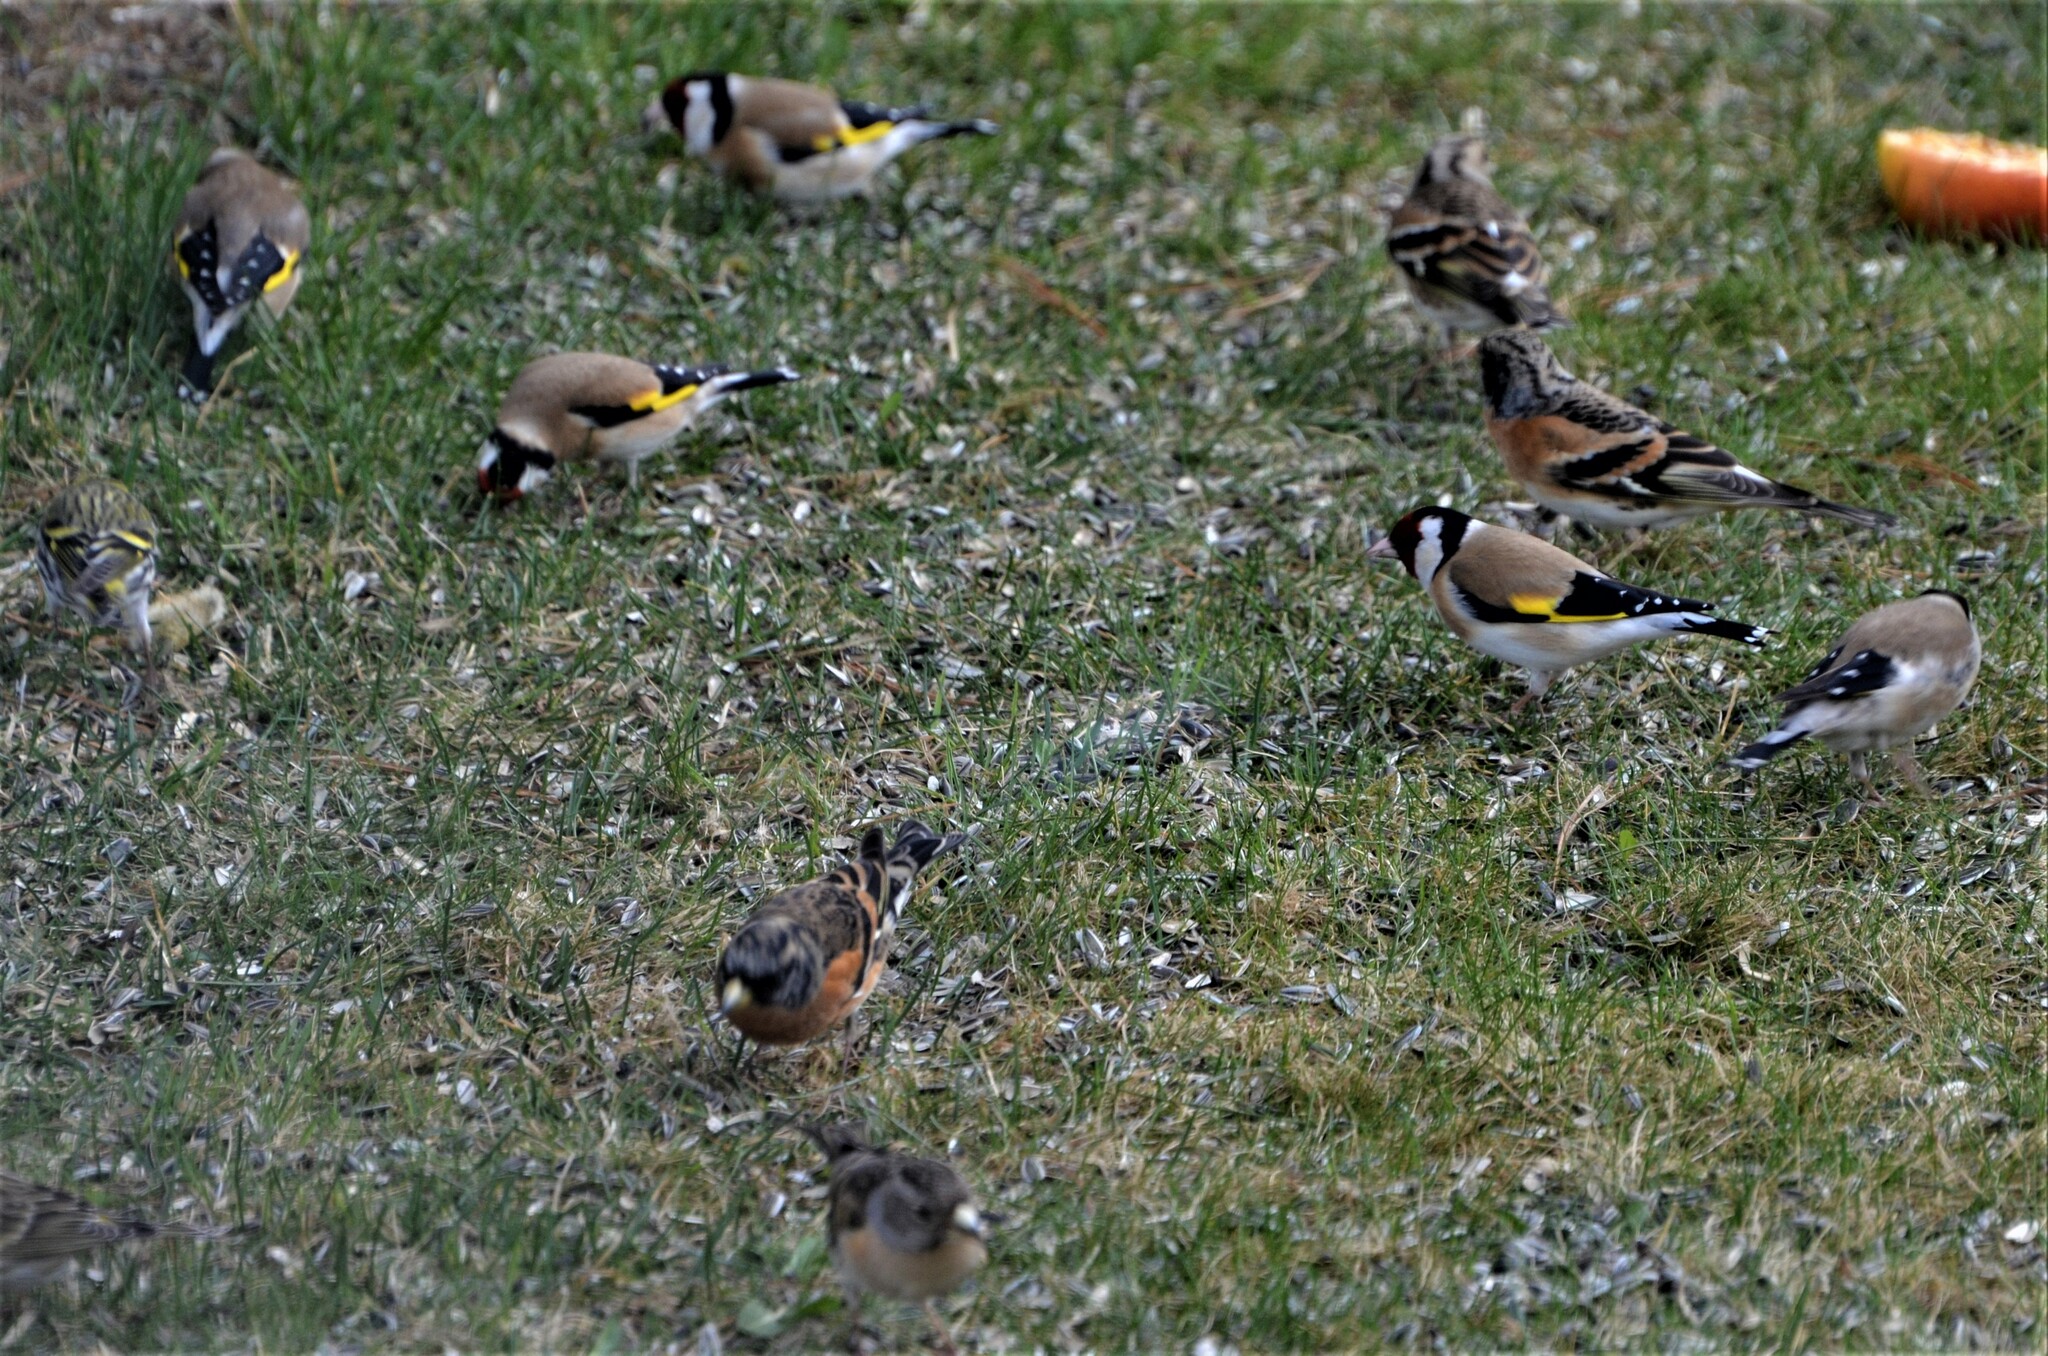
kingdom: Animalia
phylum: Chordata
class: Aves
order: Passeriformes
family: Fringillidae
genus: Carduelis
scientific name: Carduelis carduelis
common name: European goldfinch
